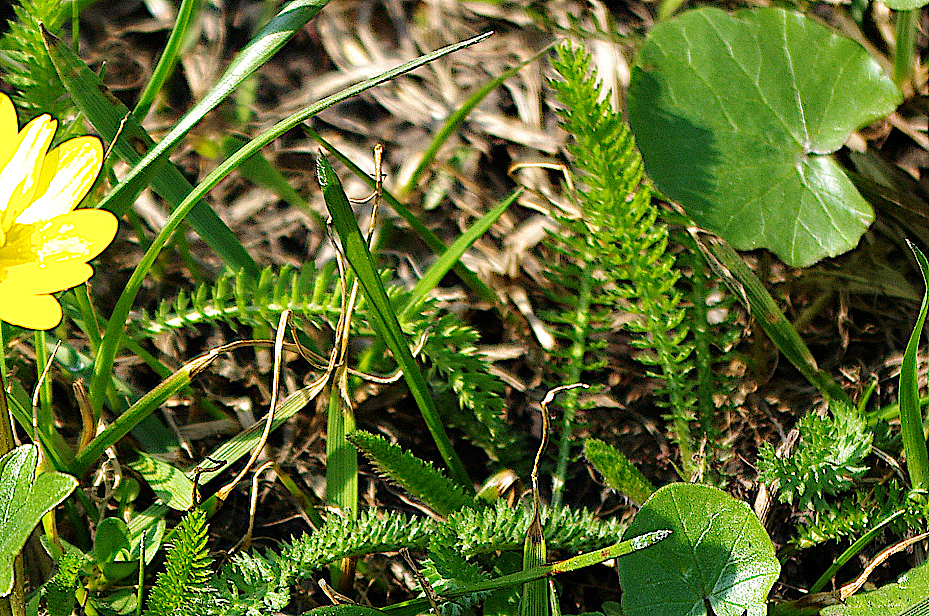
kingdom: Plantae
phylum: Tracheophyta
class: Magnoliopsida
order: Asterales
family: Asteraceae
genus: Achillea
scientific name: Achillea millefolium
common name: Yarrow
